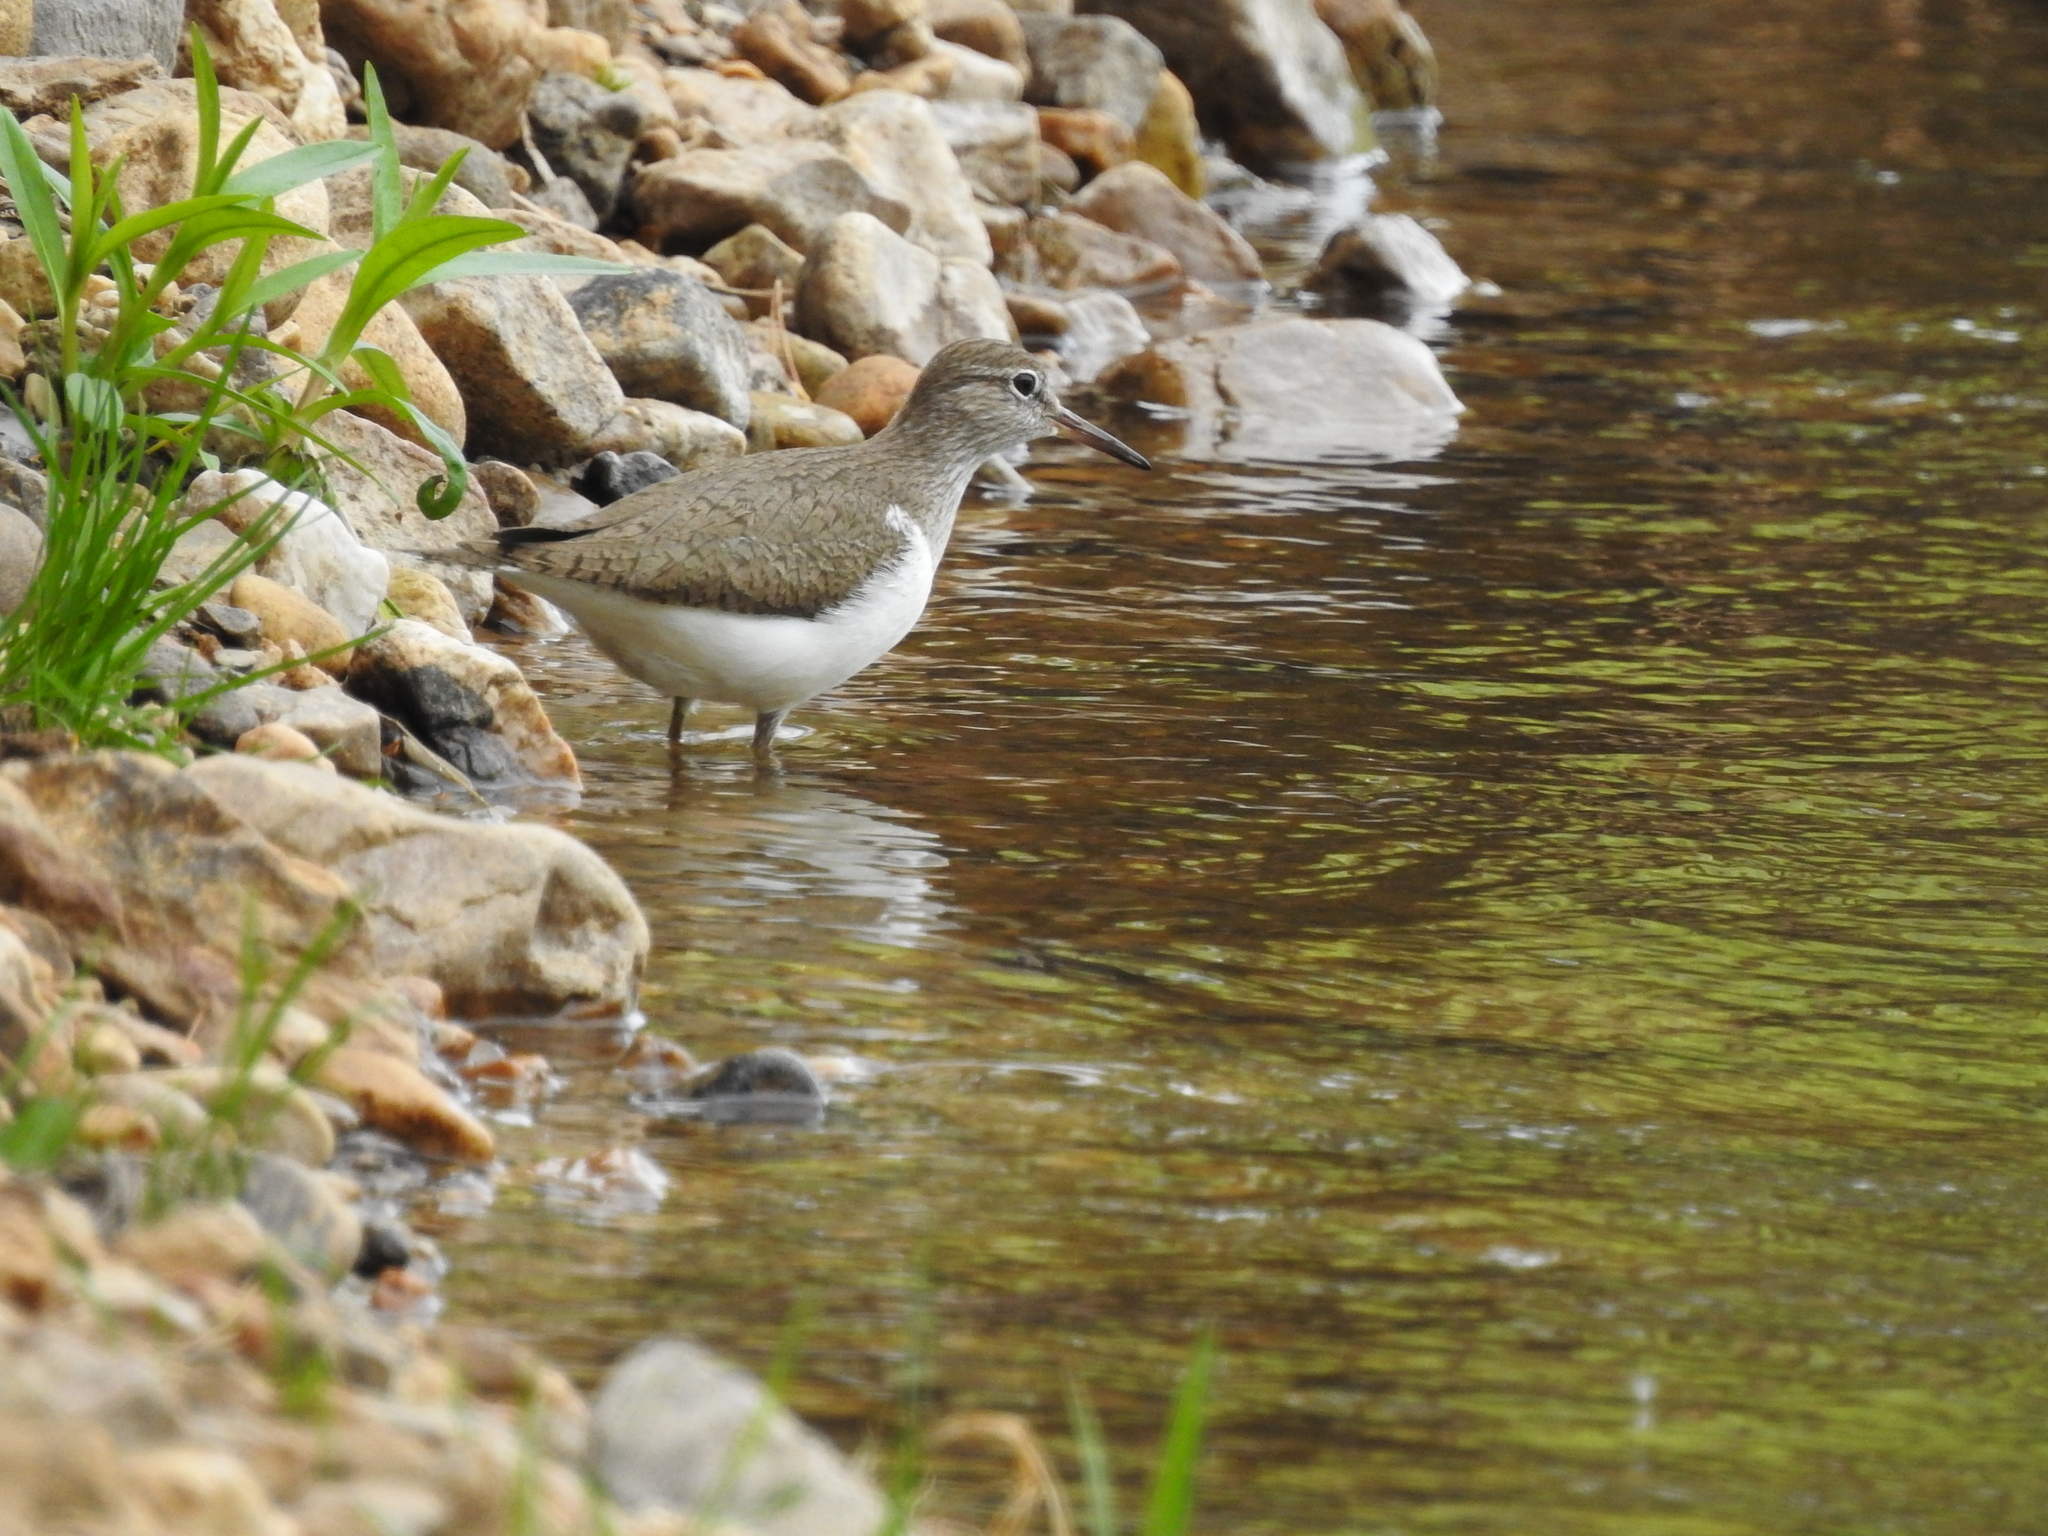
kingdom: Animalia
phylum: Chordata
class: Aves
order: Charadriiformes
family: Scolopacidae
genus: Actitis
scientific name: Actitis hypoleucos
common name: Common sandpiper
